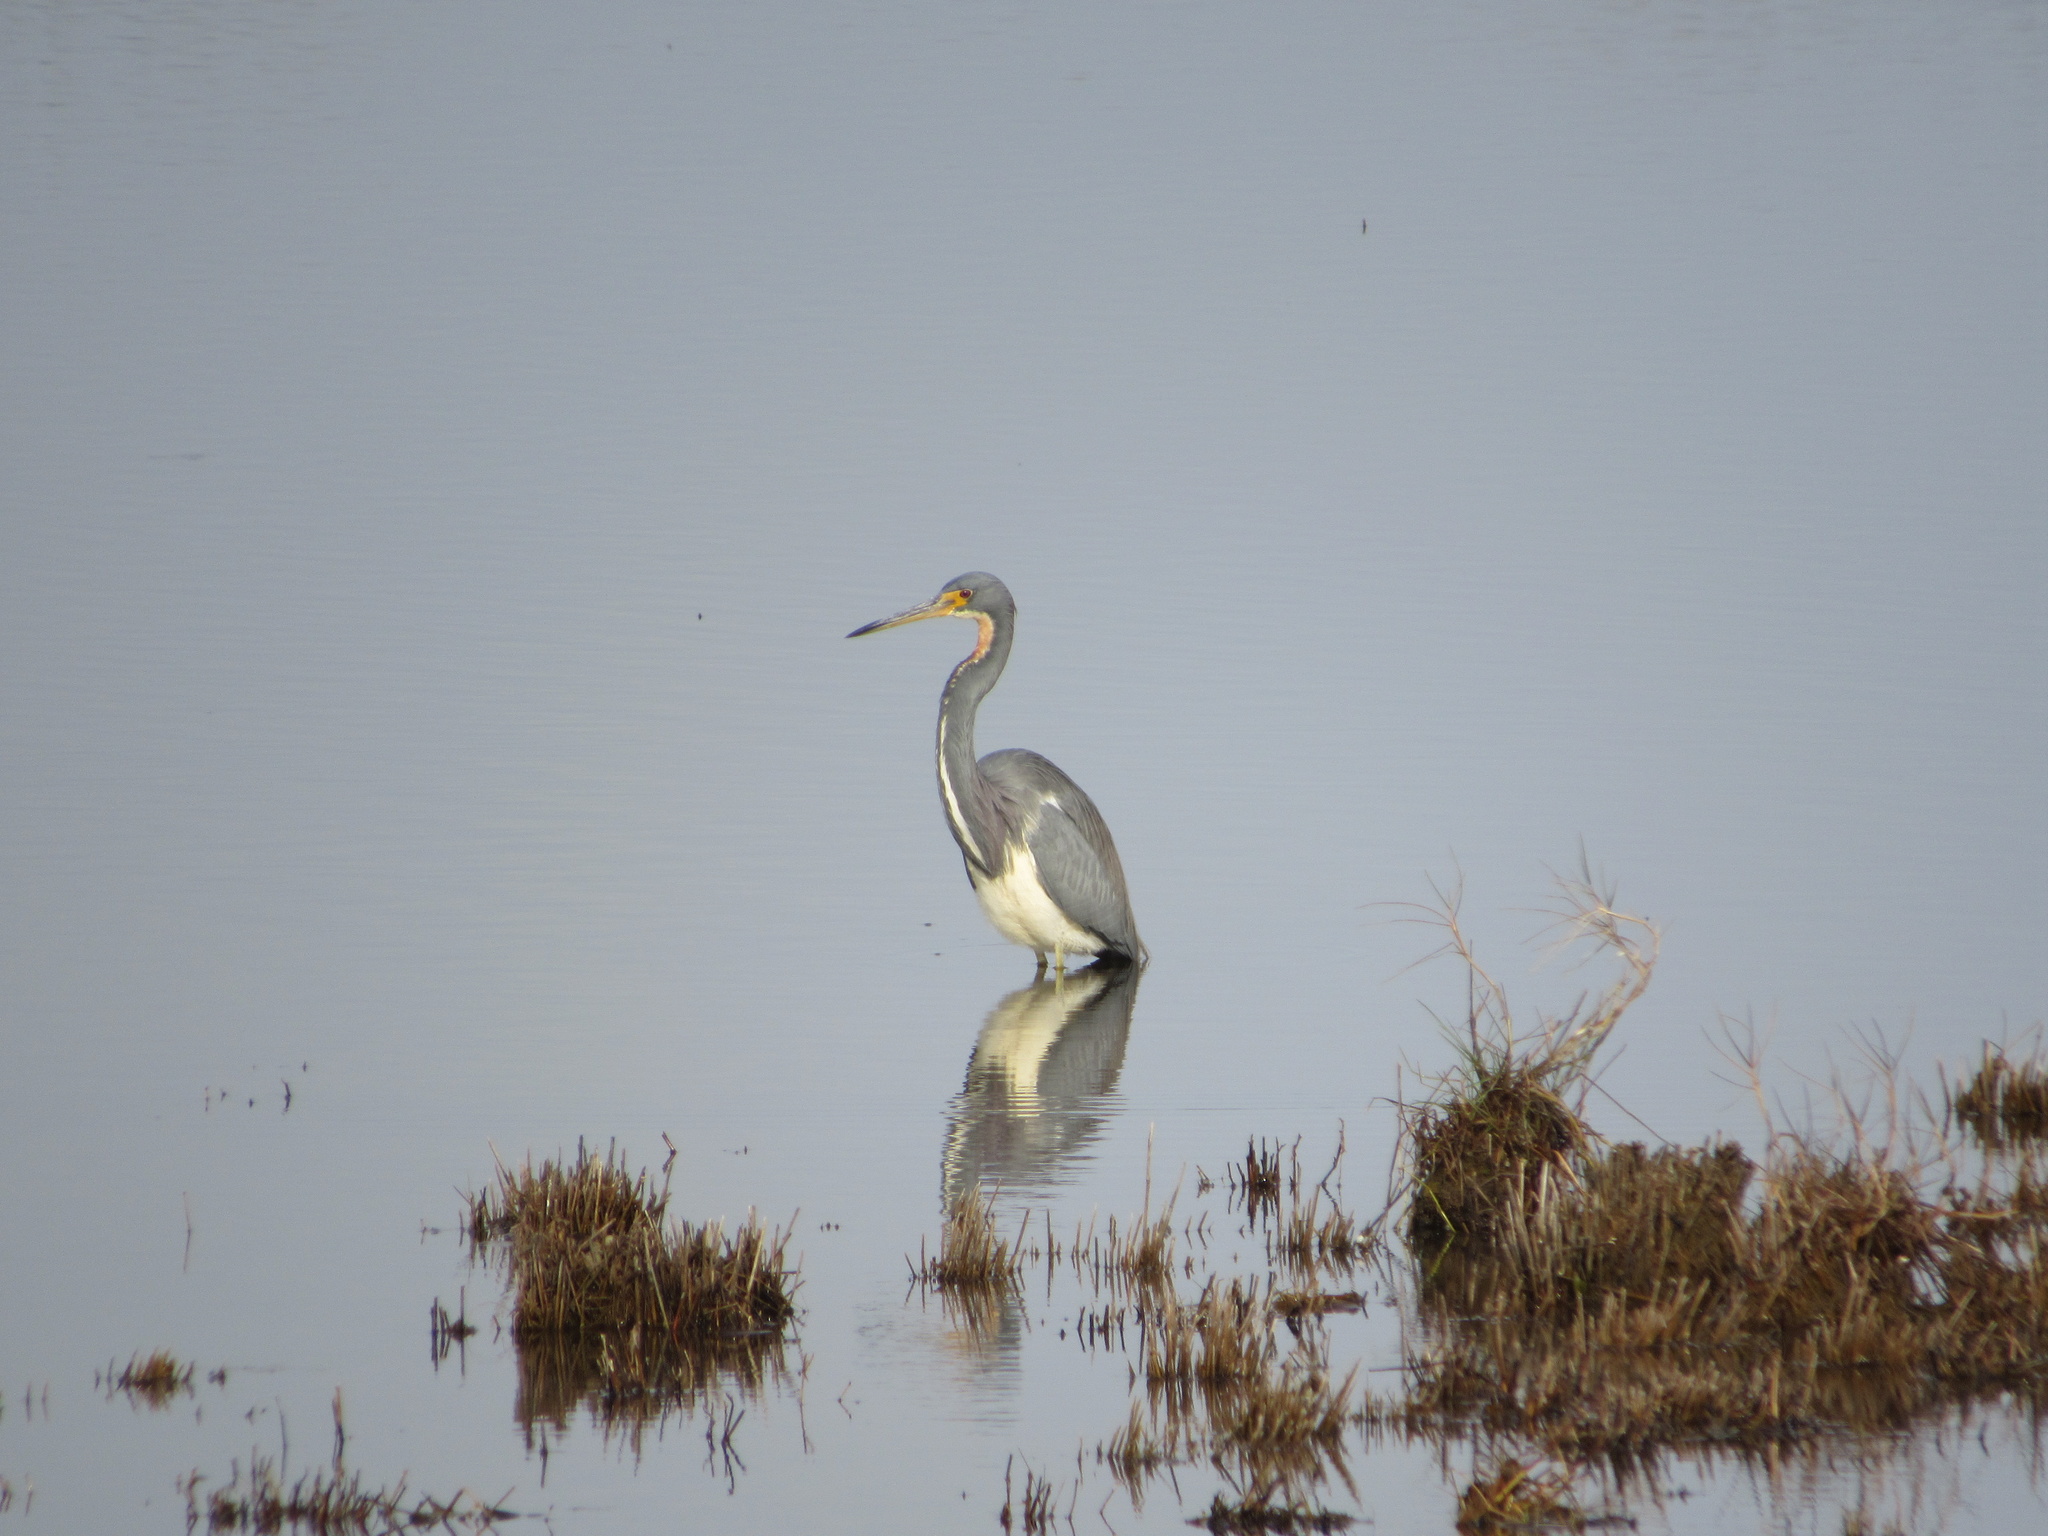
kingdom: Animalia
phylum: Chordata
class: Aves
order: Pelecaniformes
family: Ardeidae
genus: Egretta
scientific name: Egretta tricolor
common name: Tricolored heron
